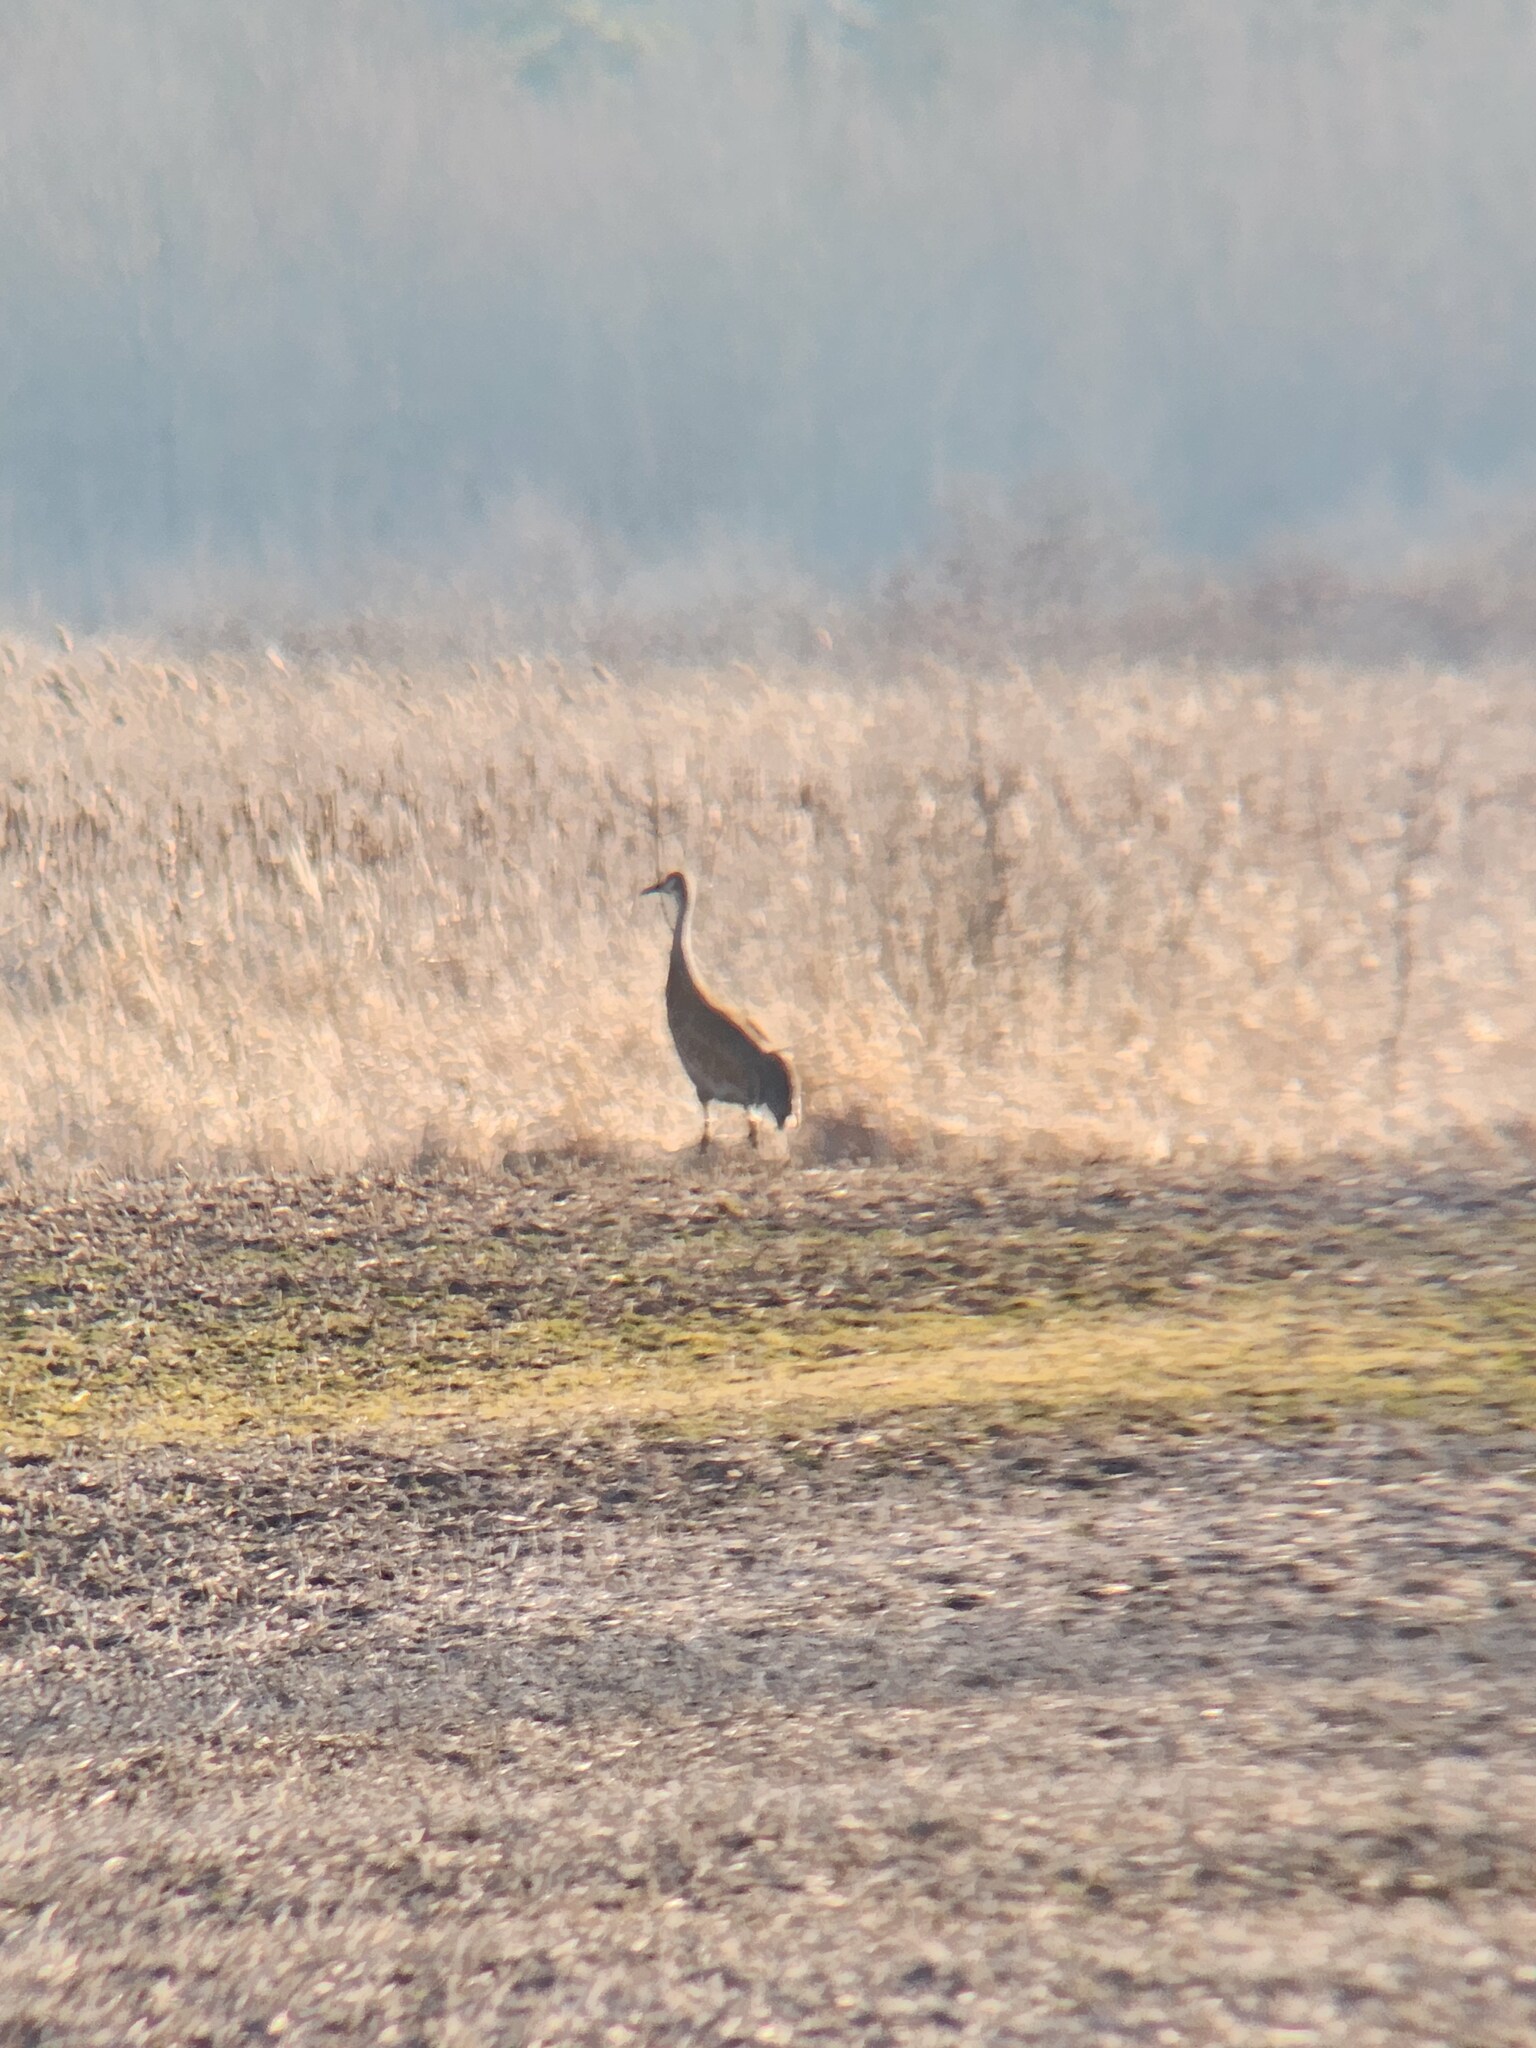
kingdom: Animalia
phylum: Chordata
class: Aves
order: Gruiformes
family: Gruidae
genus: Grus
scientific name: Grus canadensis
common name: Sandhill crane
